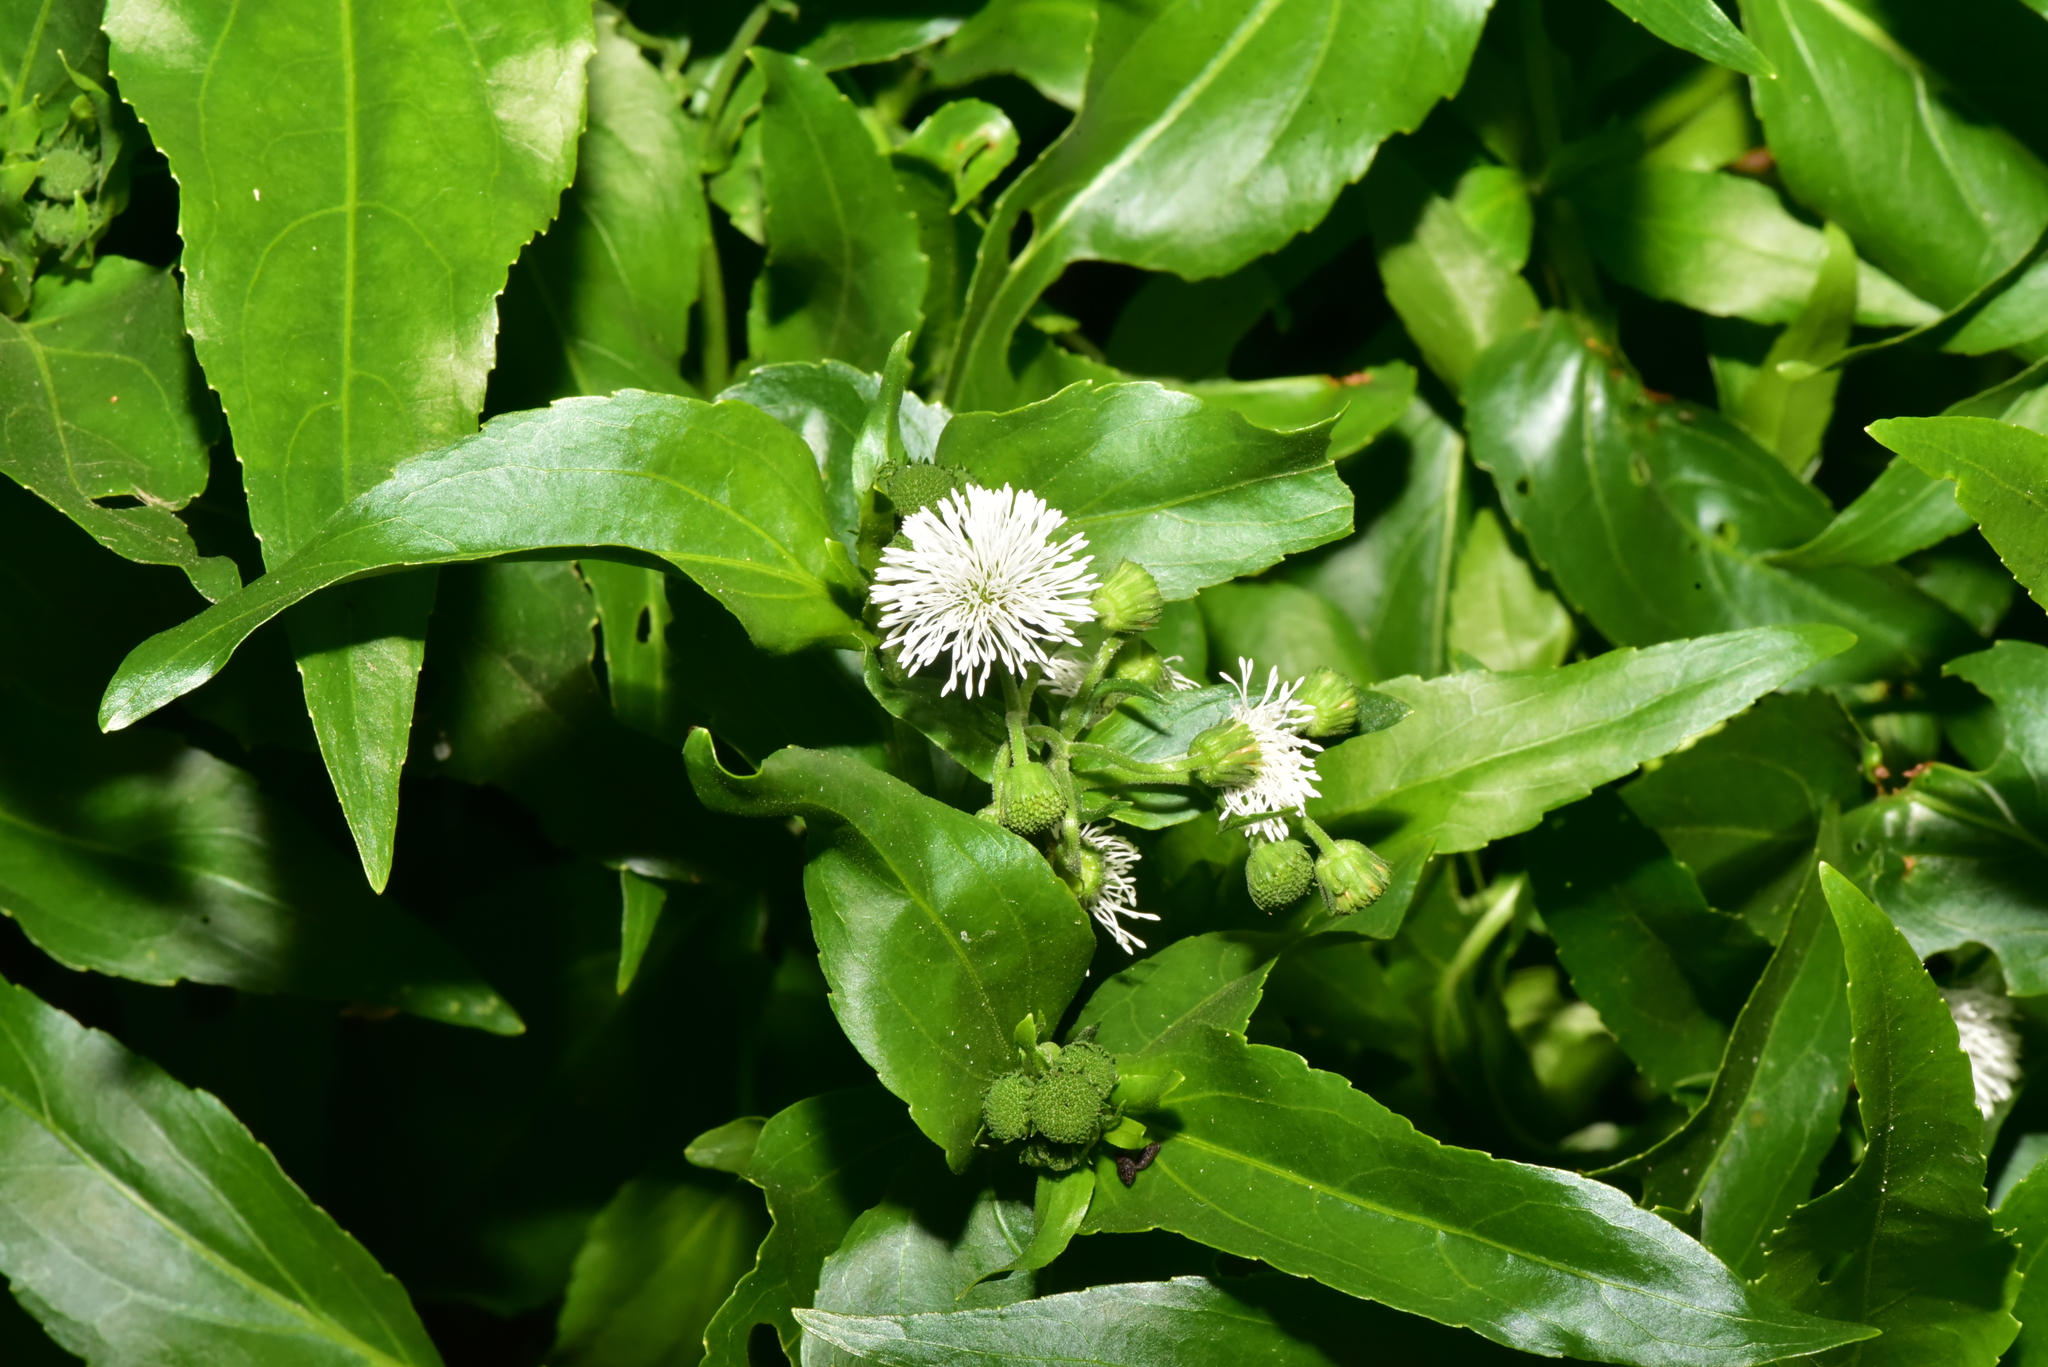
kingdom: Plantae
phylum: Tracheophyta
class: Magnoliopsida
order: Asterales
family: Asteraceae
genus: Gymnocoronis
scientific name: Gymnocoronis spilanthoides
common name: Senegal teaplant
